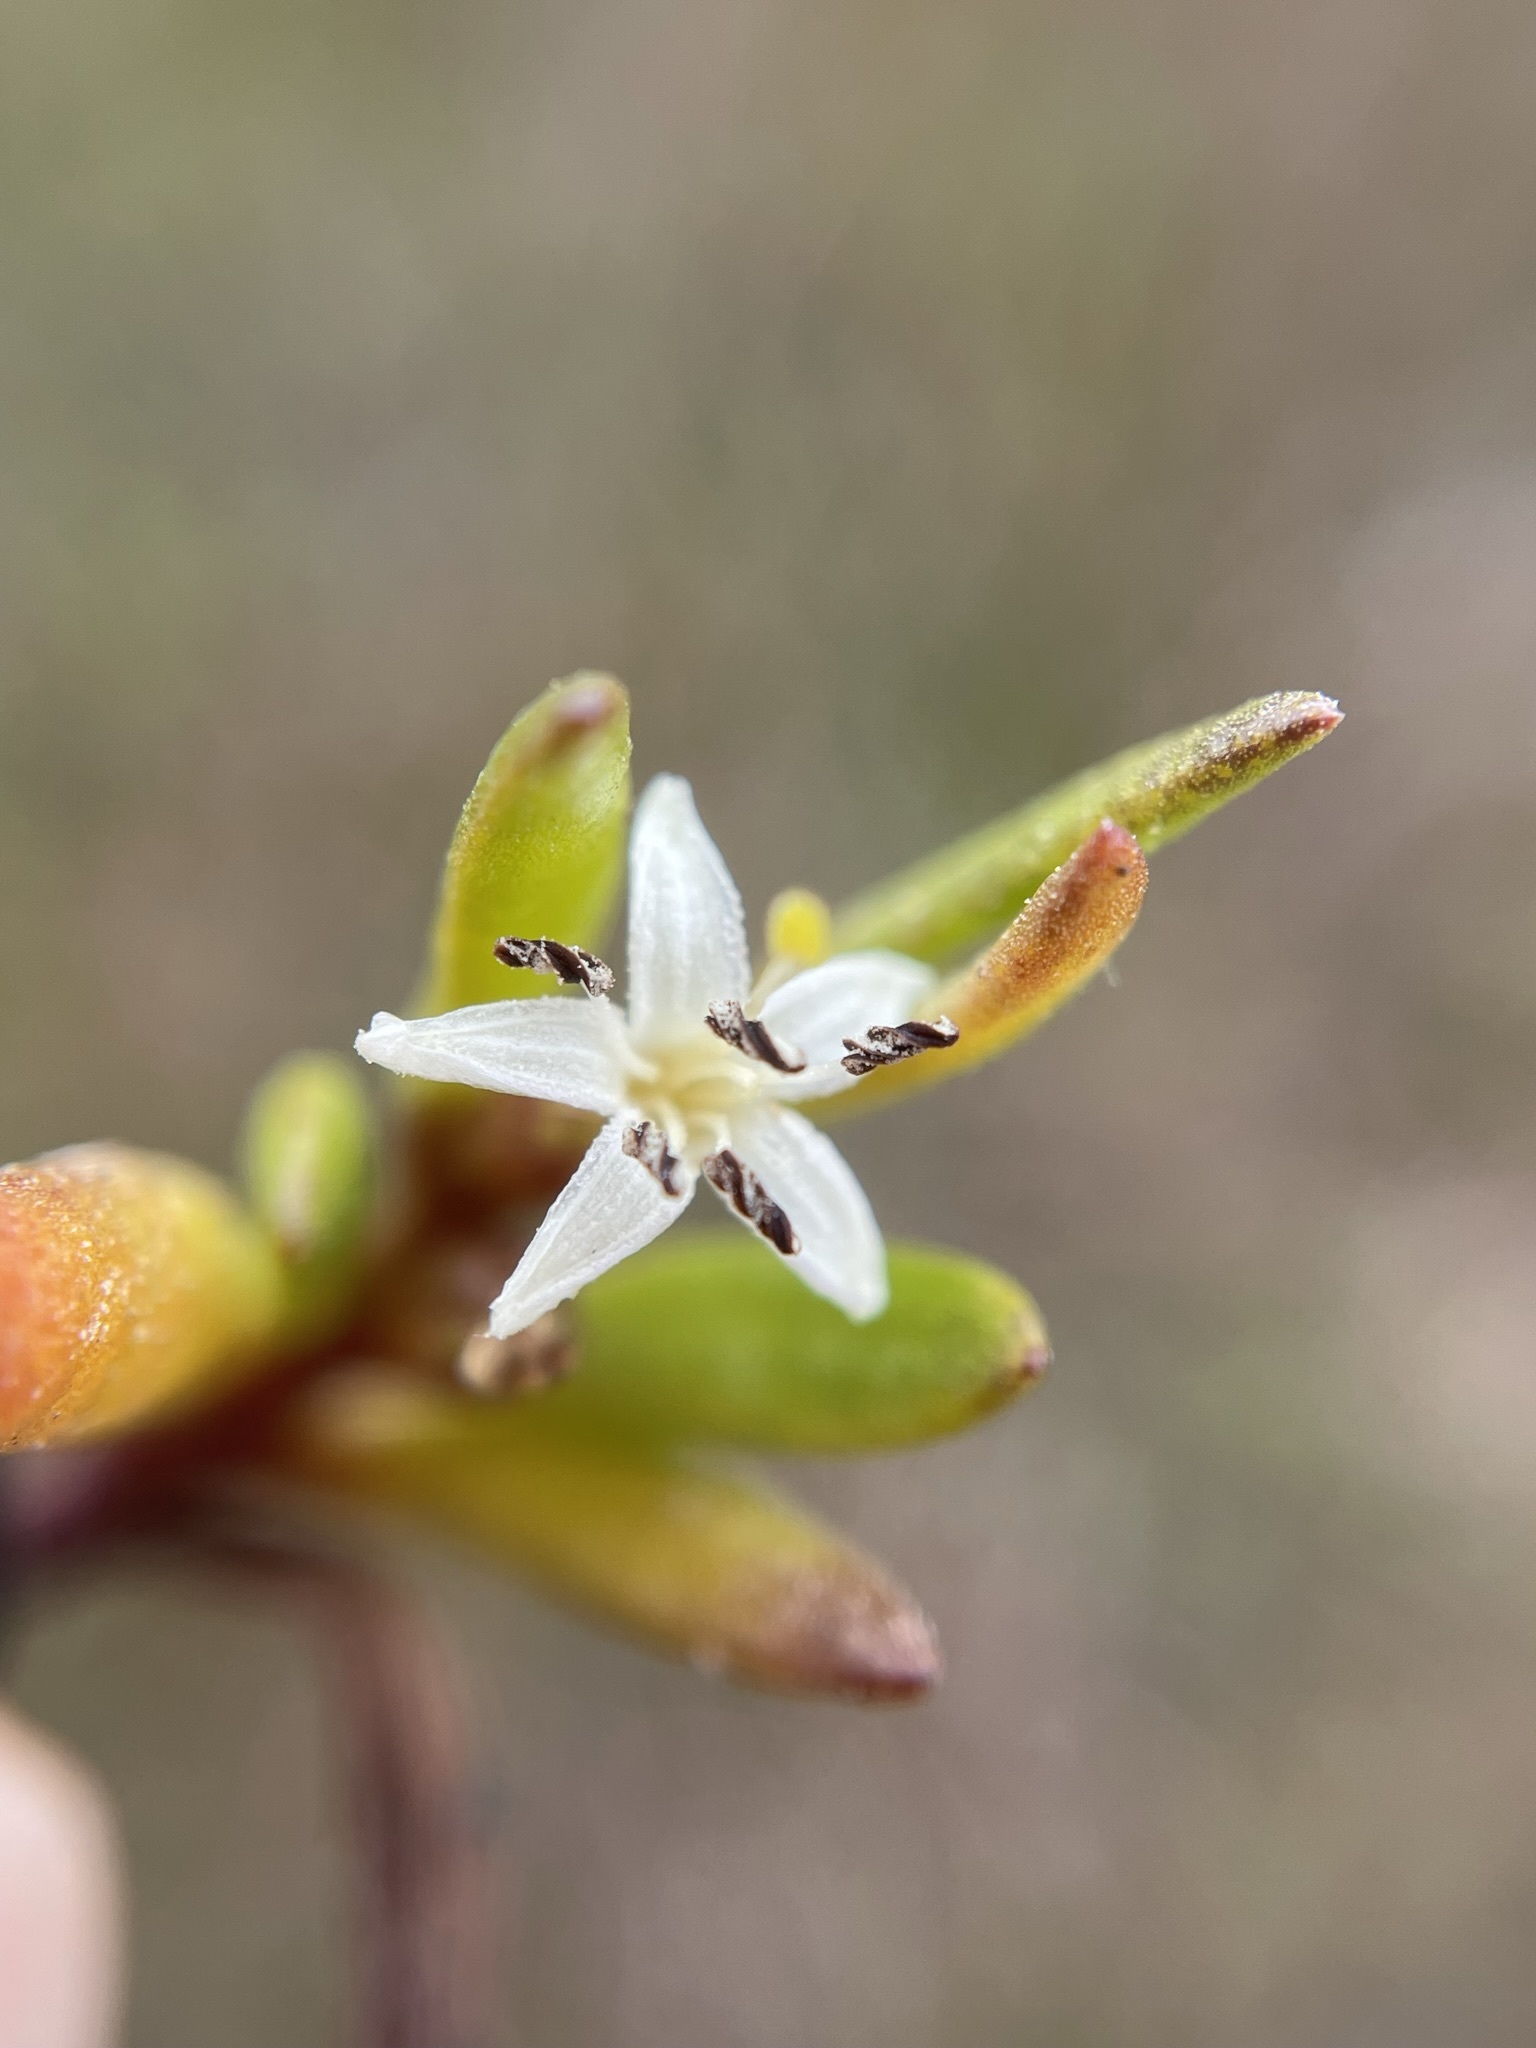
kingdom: Plantae
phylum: Tracheophyta
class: Magnoliopsida
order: Solanales
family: Convolvulaceae
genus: Wilsonia
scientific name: Wilsonia backhousei
